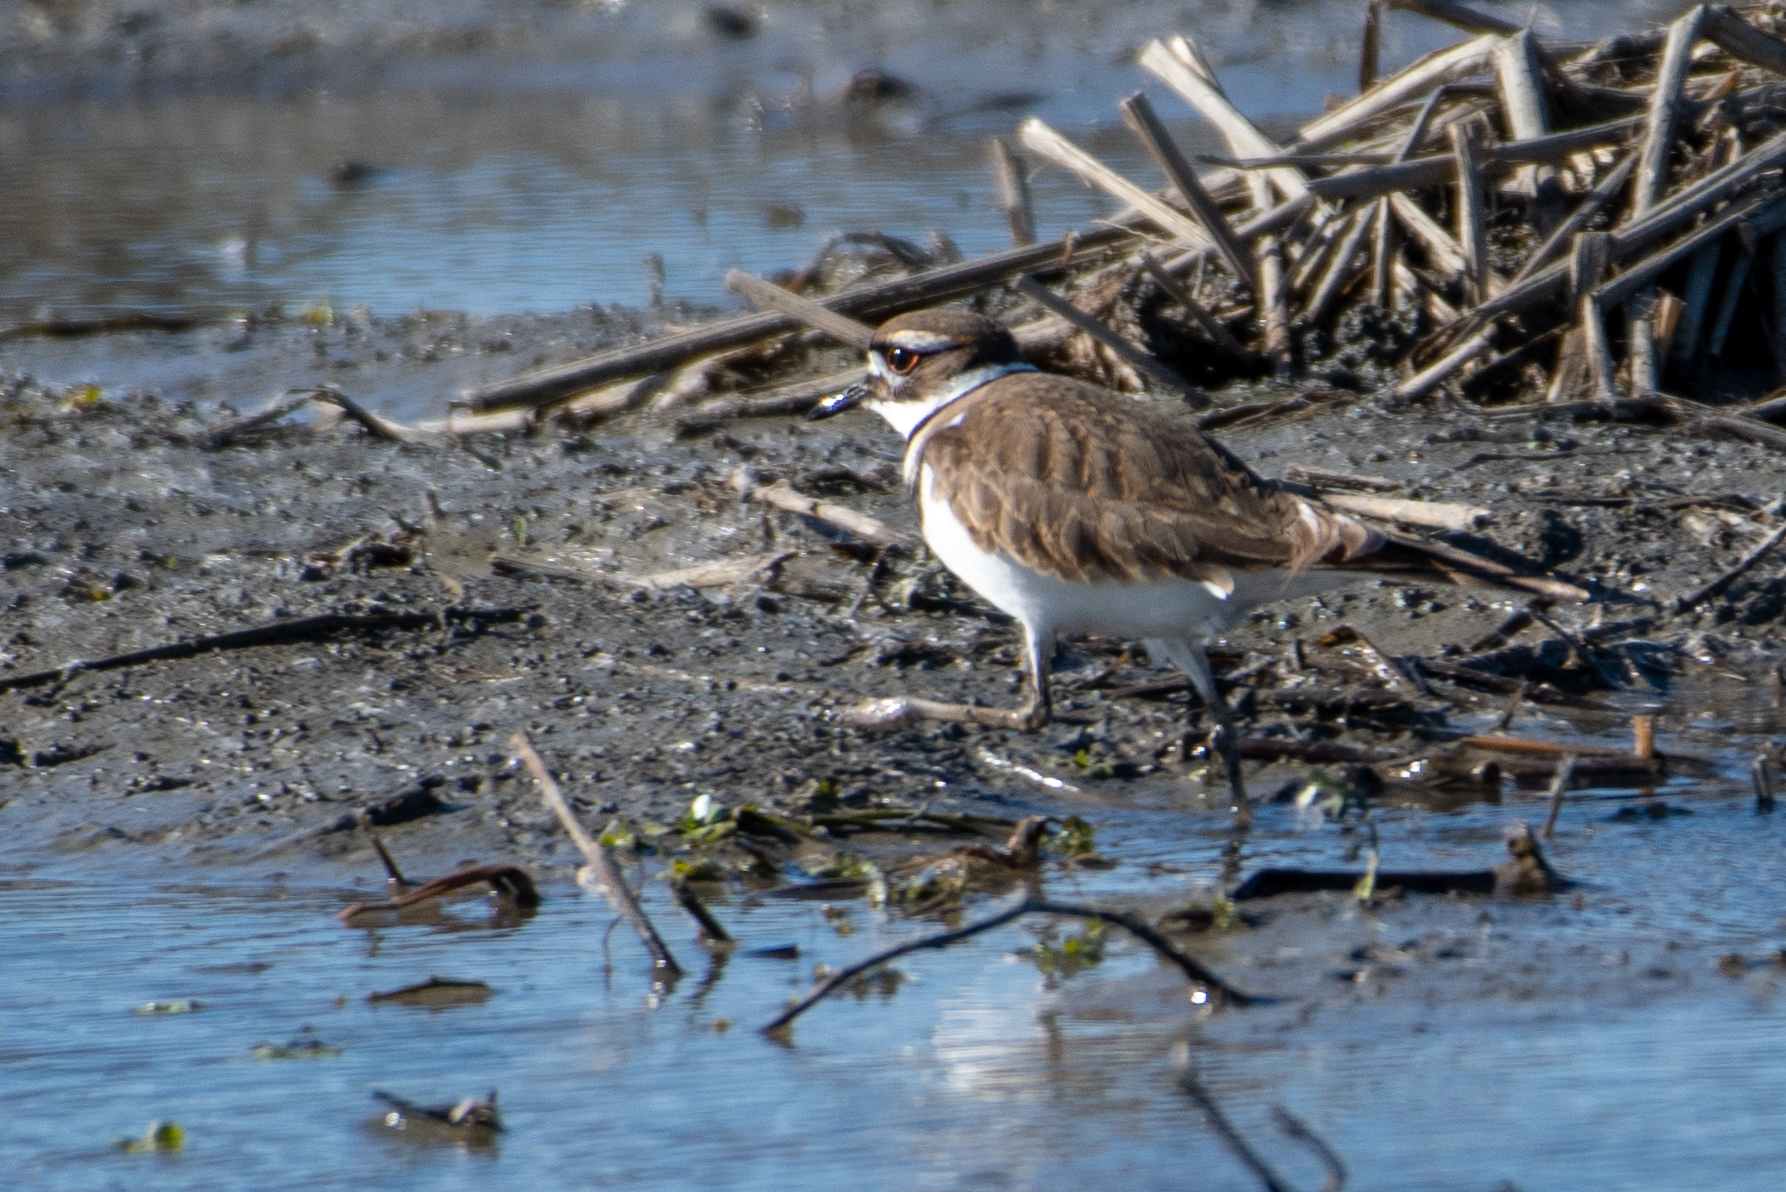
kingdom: Animalia
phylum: Chordata
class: Aves
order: Charadriiformes
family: Charadriidae
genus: Charadrius
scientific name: Charadrius vociferus
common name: Killdeer
